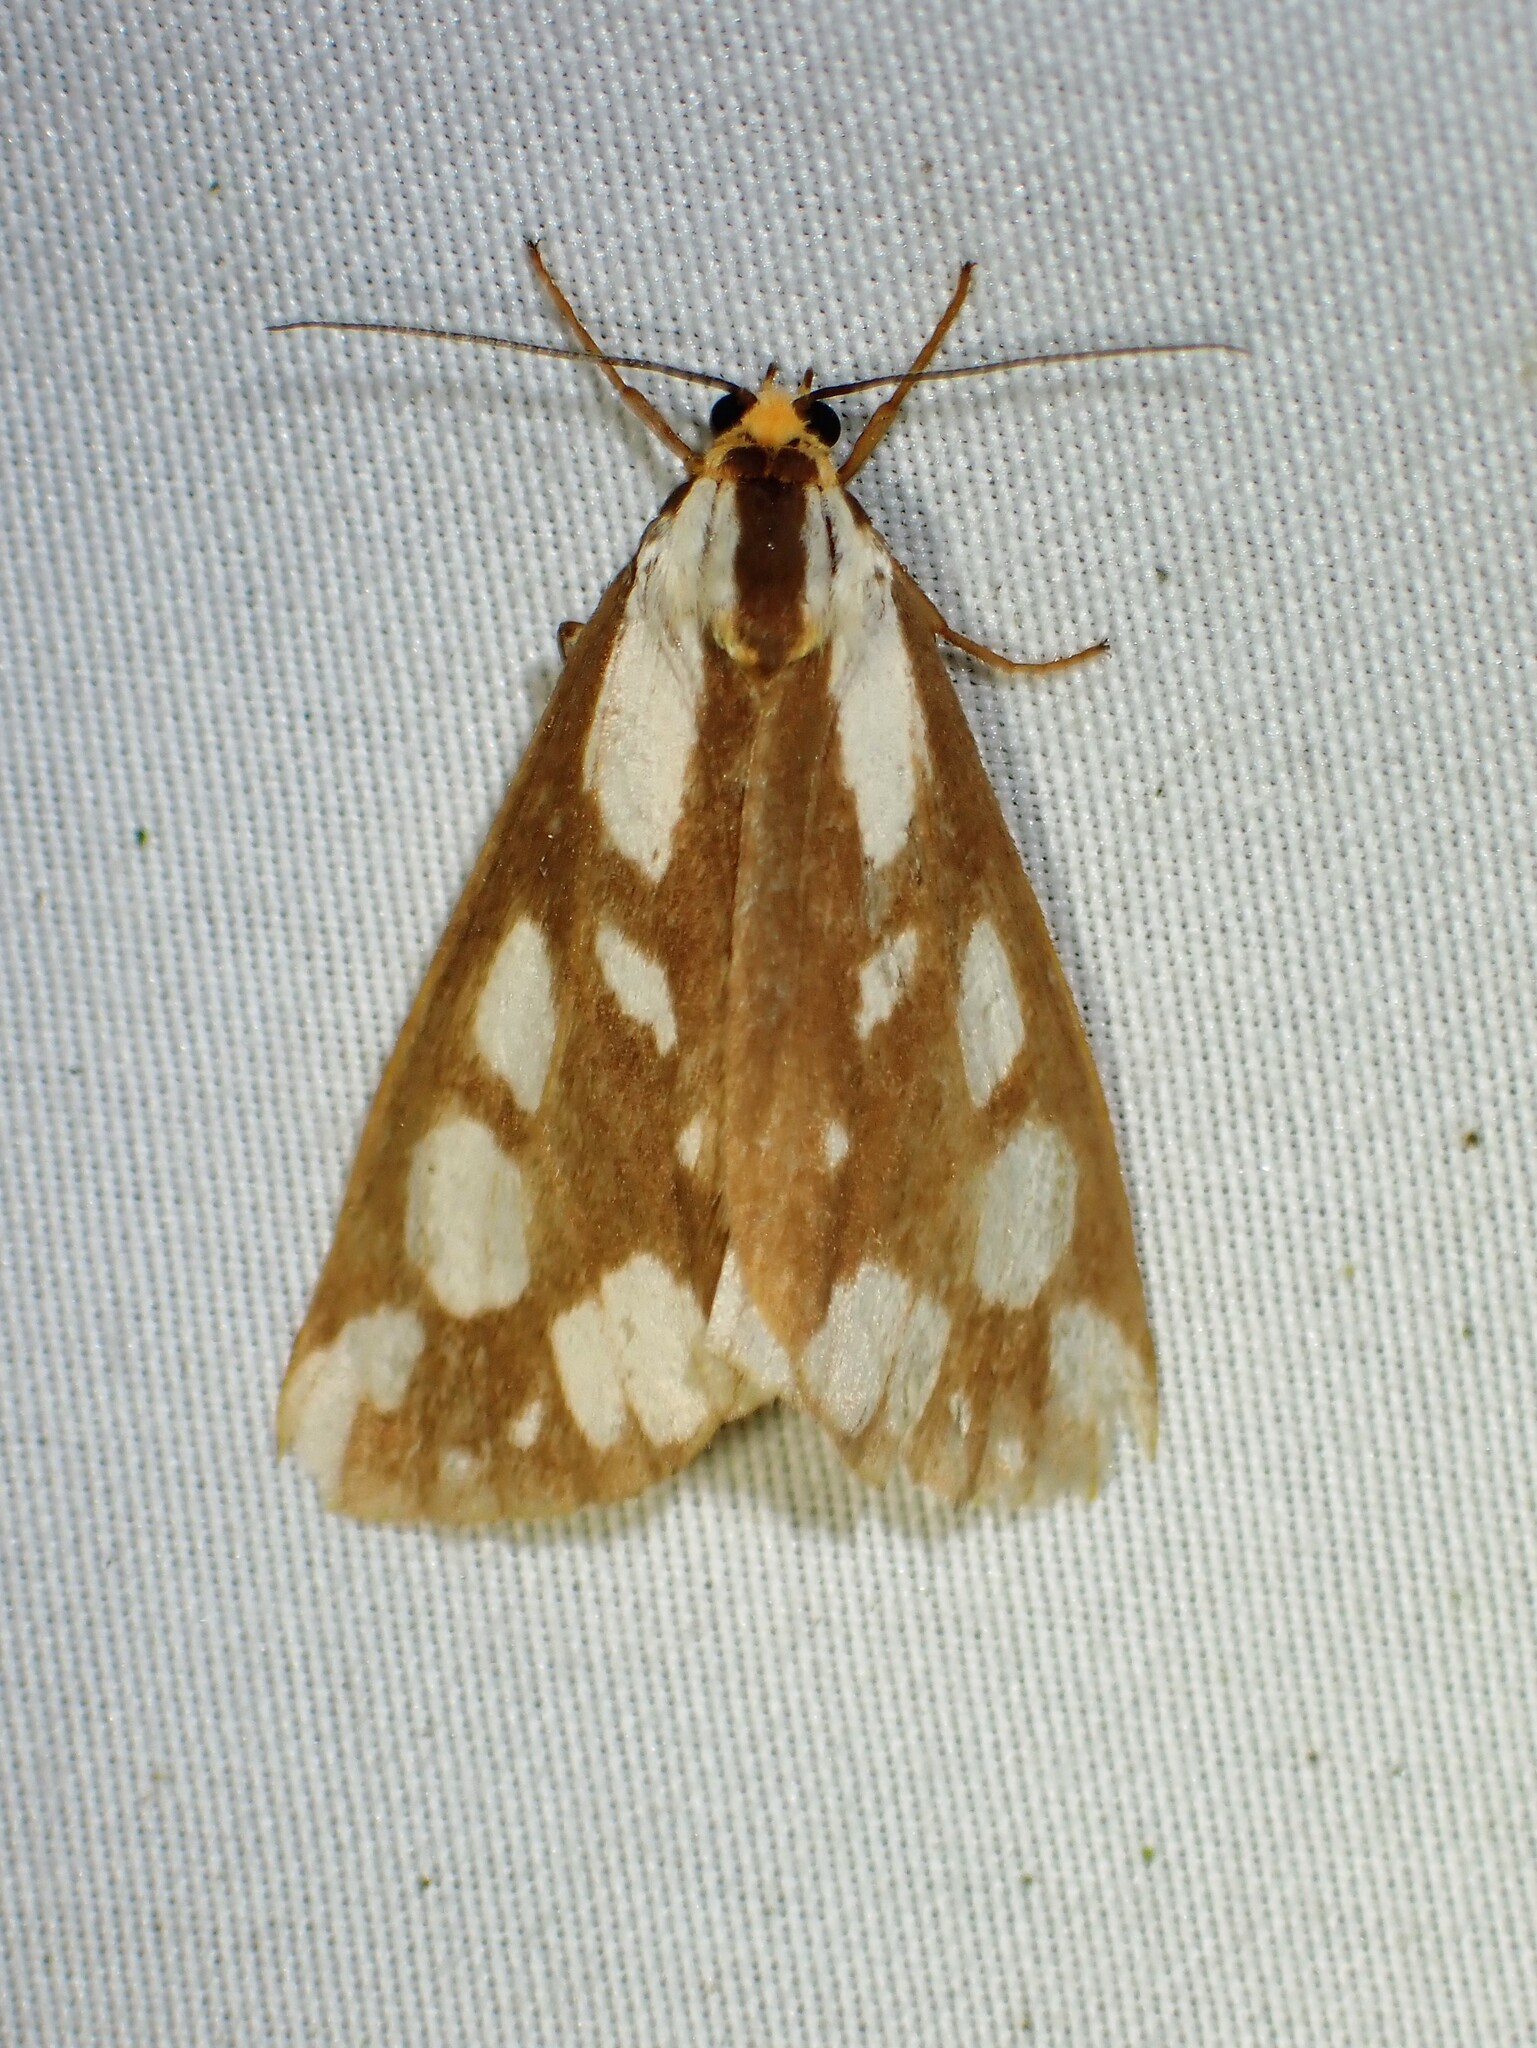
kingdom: Animalia
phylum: Arthropoda
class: Insecta
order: Lepidoptera
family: Erebidae
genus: Haploa
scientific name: Haploa confusa
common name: Confused haploa moth
